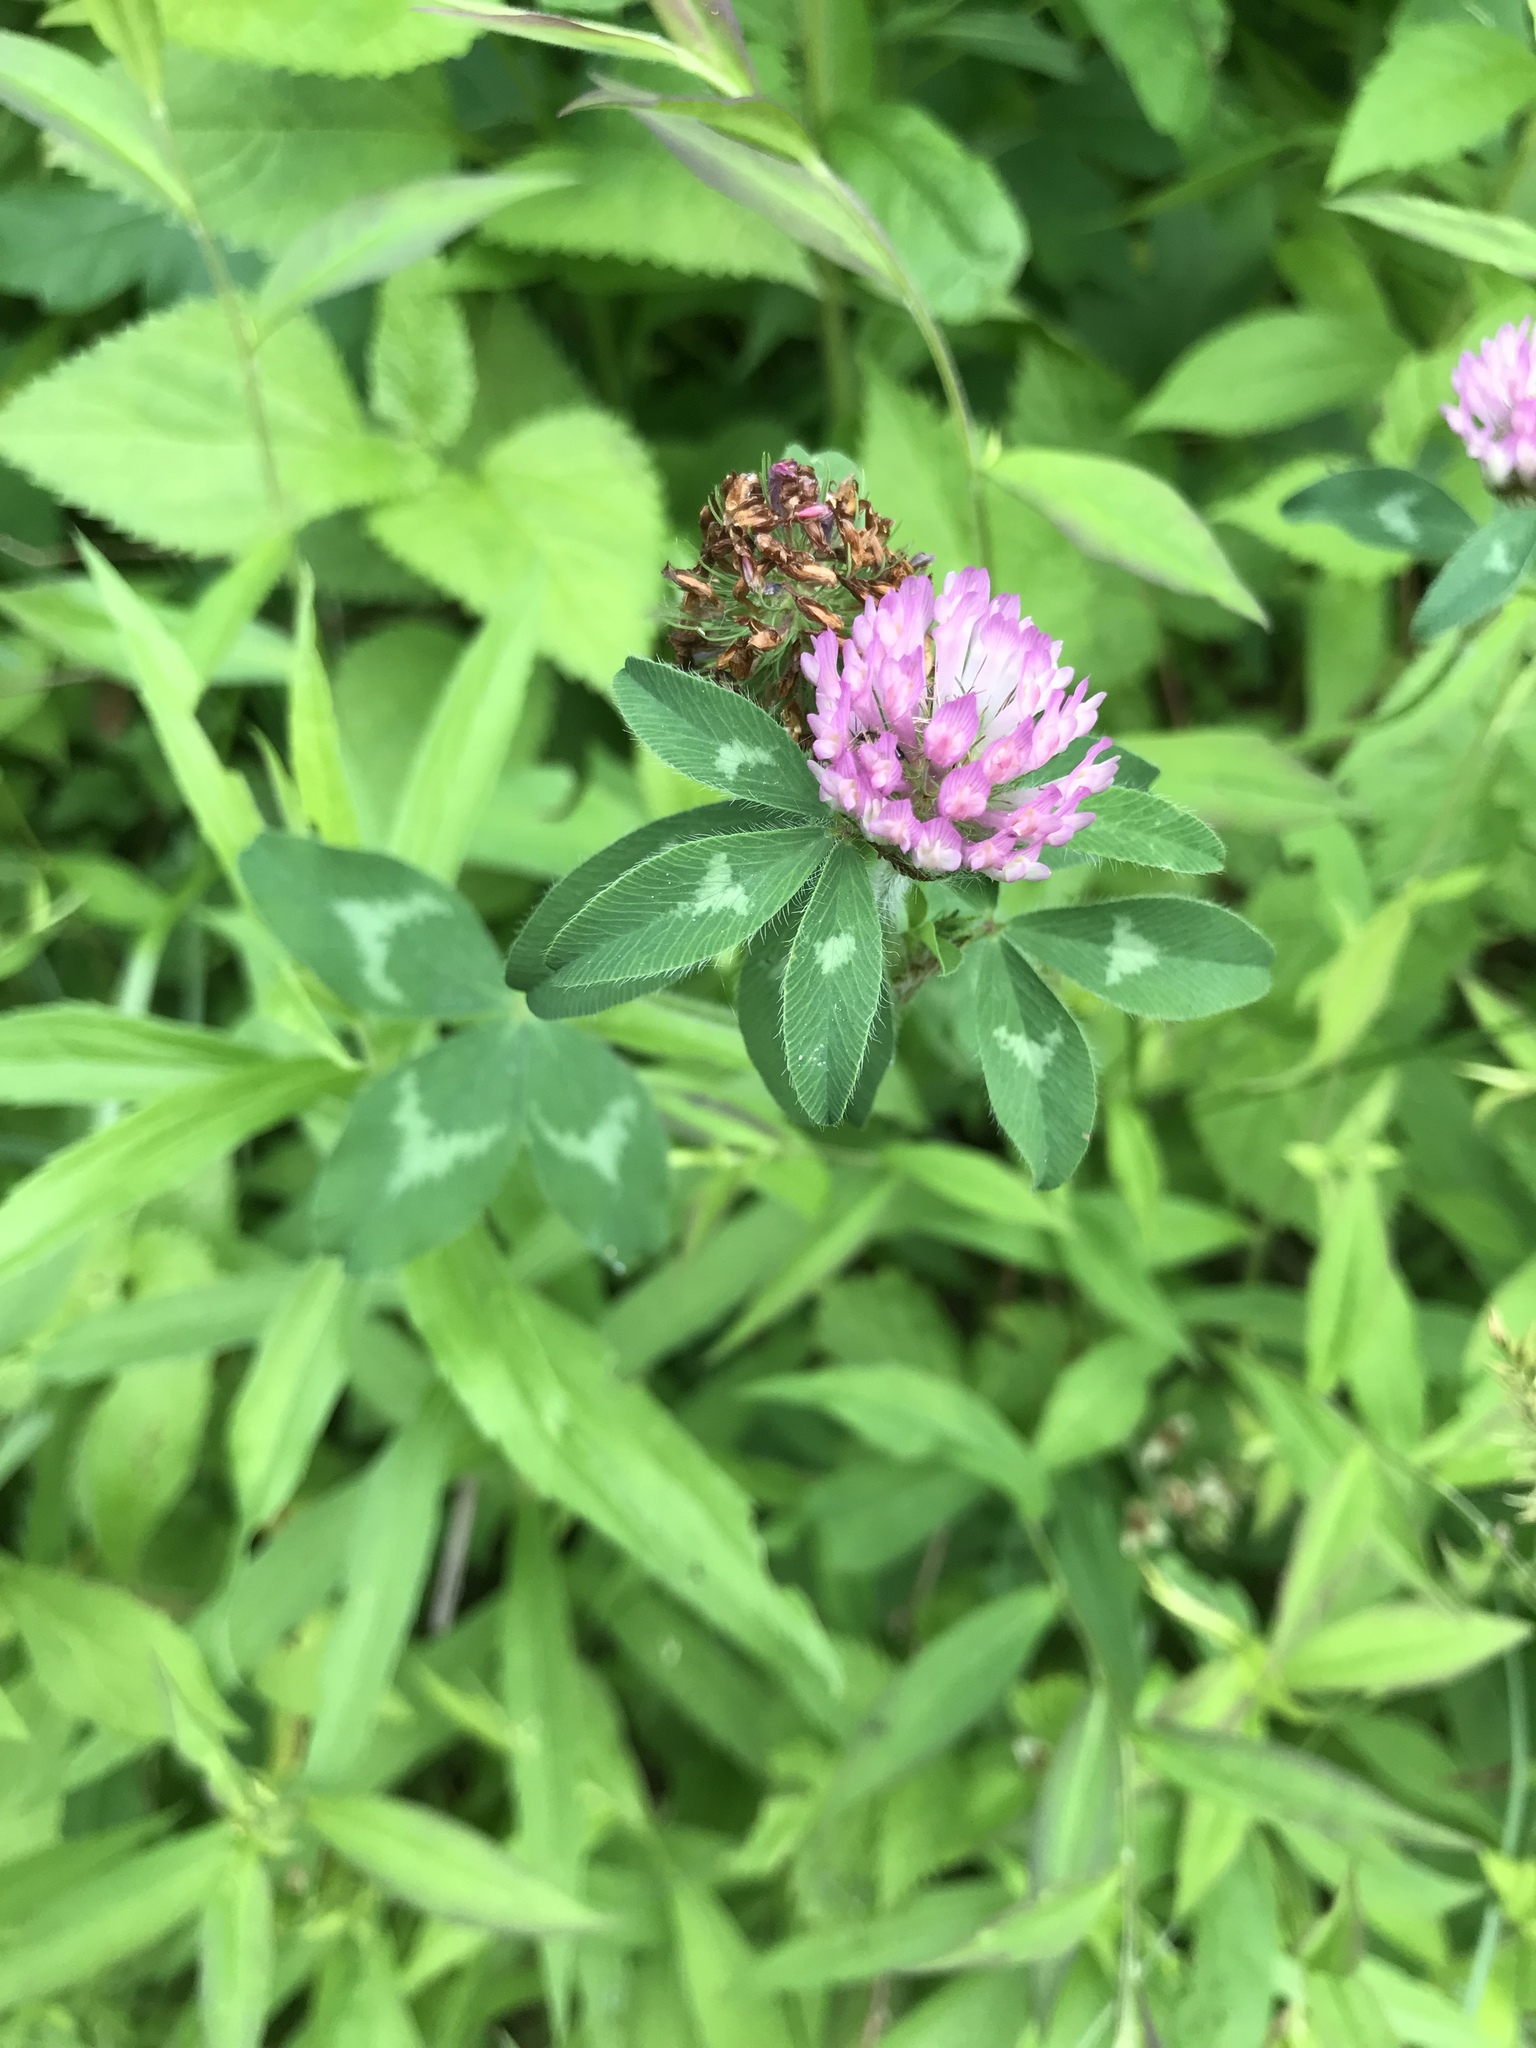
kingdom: Plantae
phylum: Tracheophyta
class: Magnoliopsida
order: Fabales
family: Fabaceae
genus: Trifolium
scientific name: Trifolium pratense
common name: Red clover
